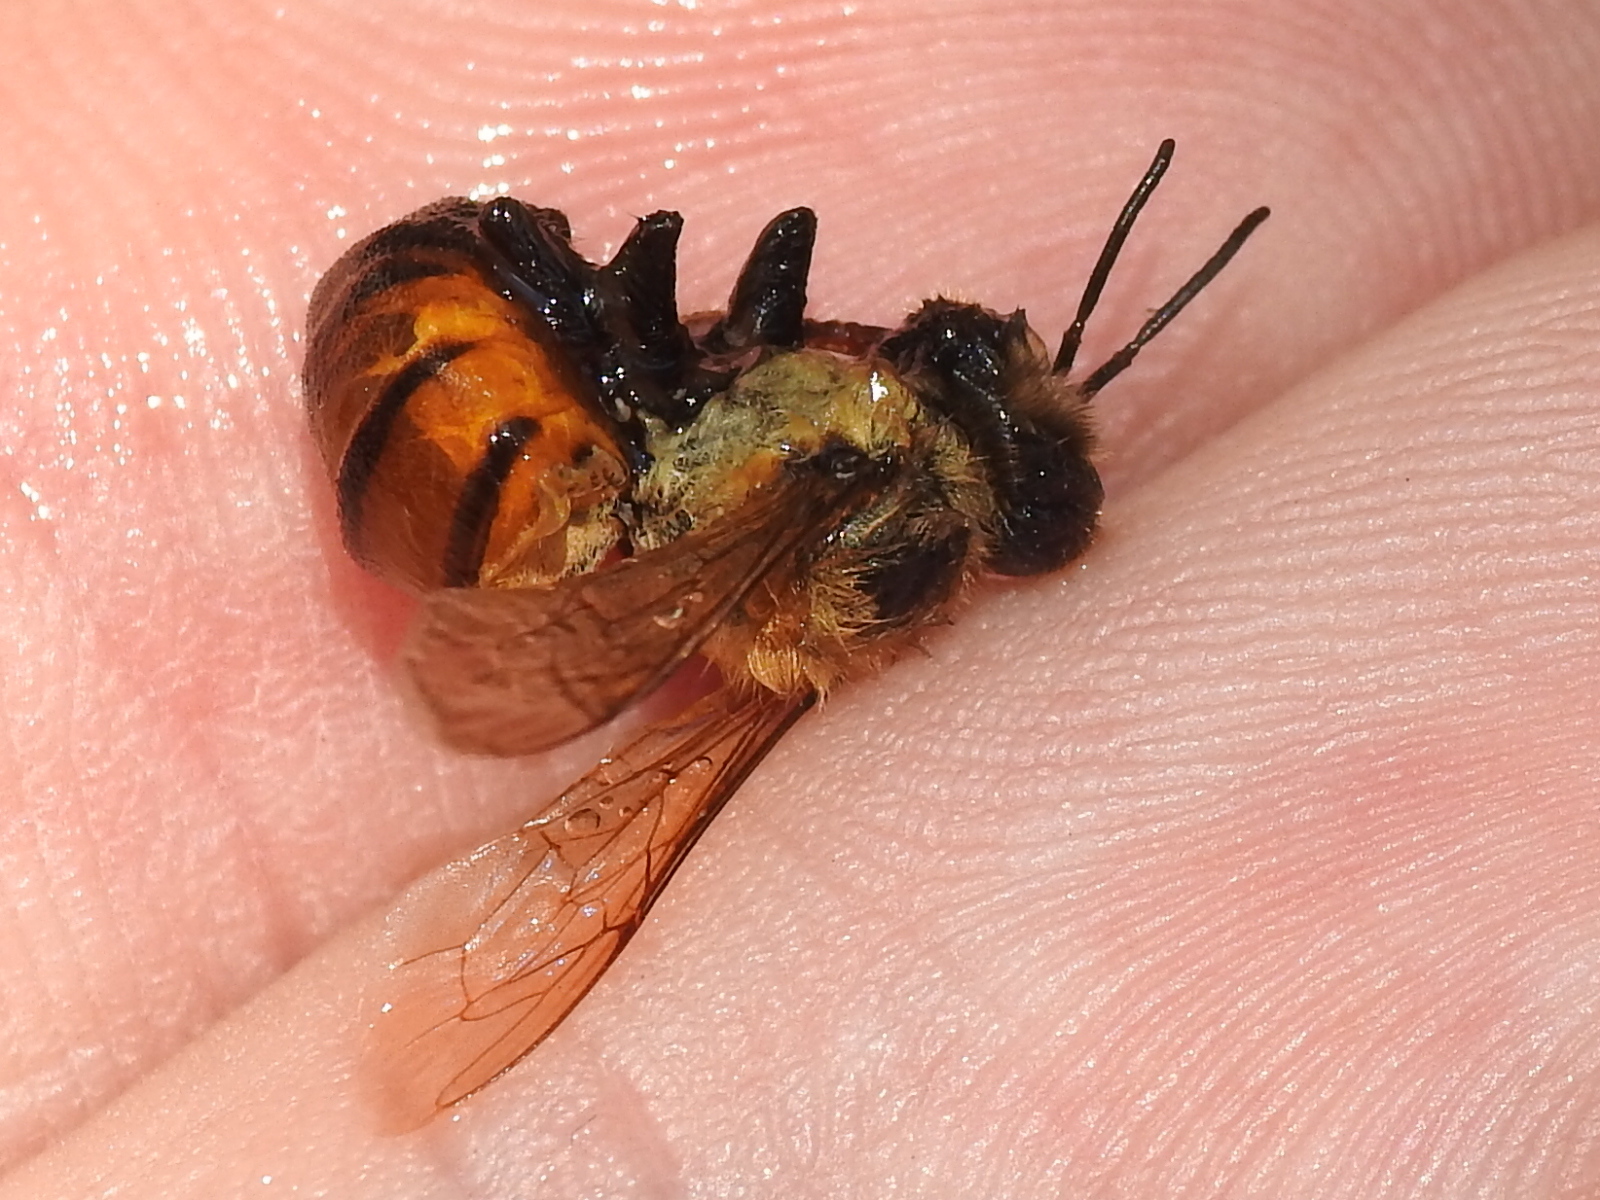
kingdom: Animalia
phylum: Arthropoda
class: Insecta
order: Hymenoptera
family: Apidae
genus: Apis
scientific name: Apis mellifera
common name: Honey bee
